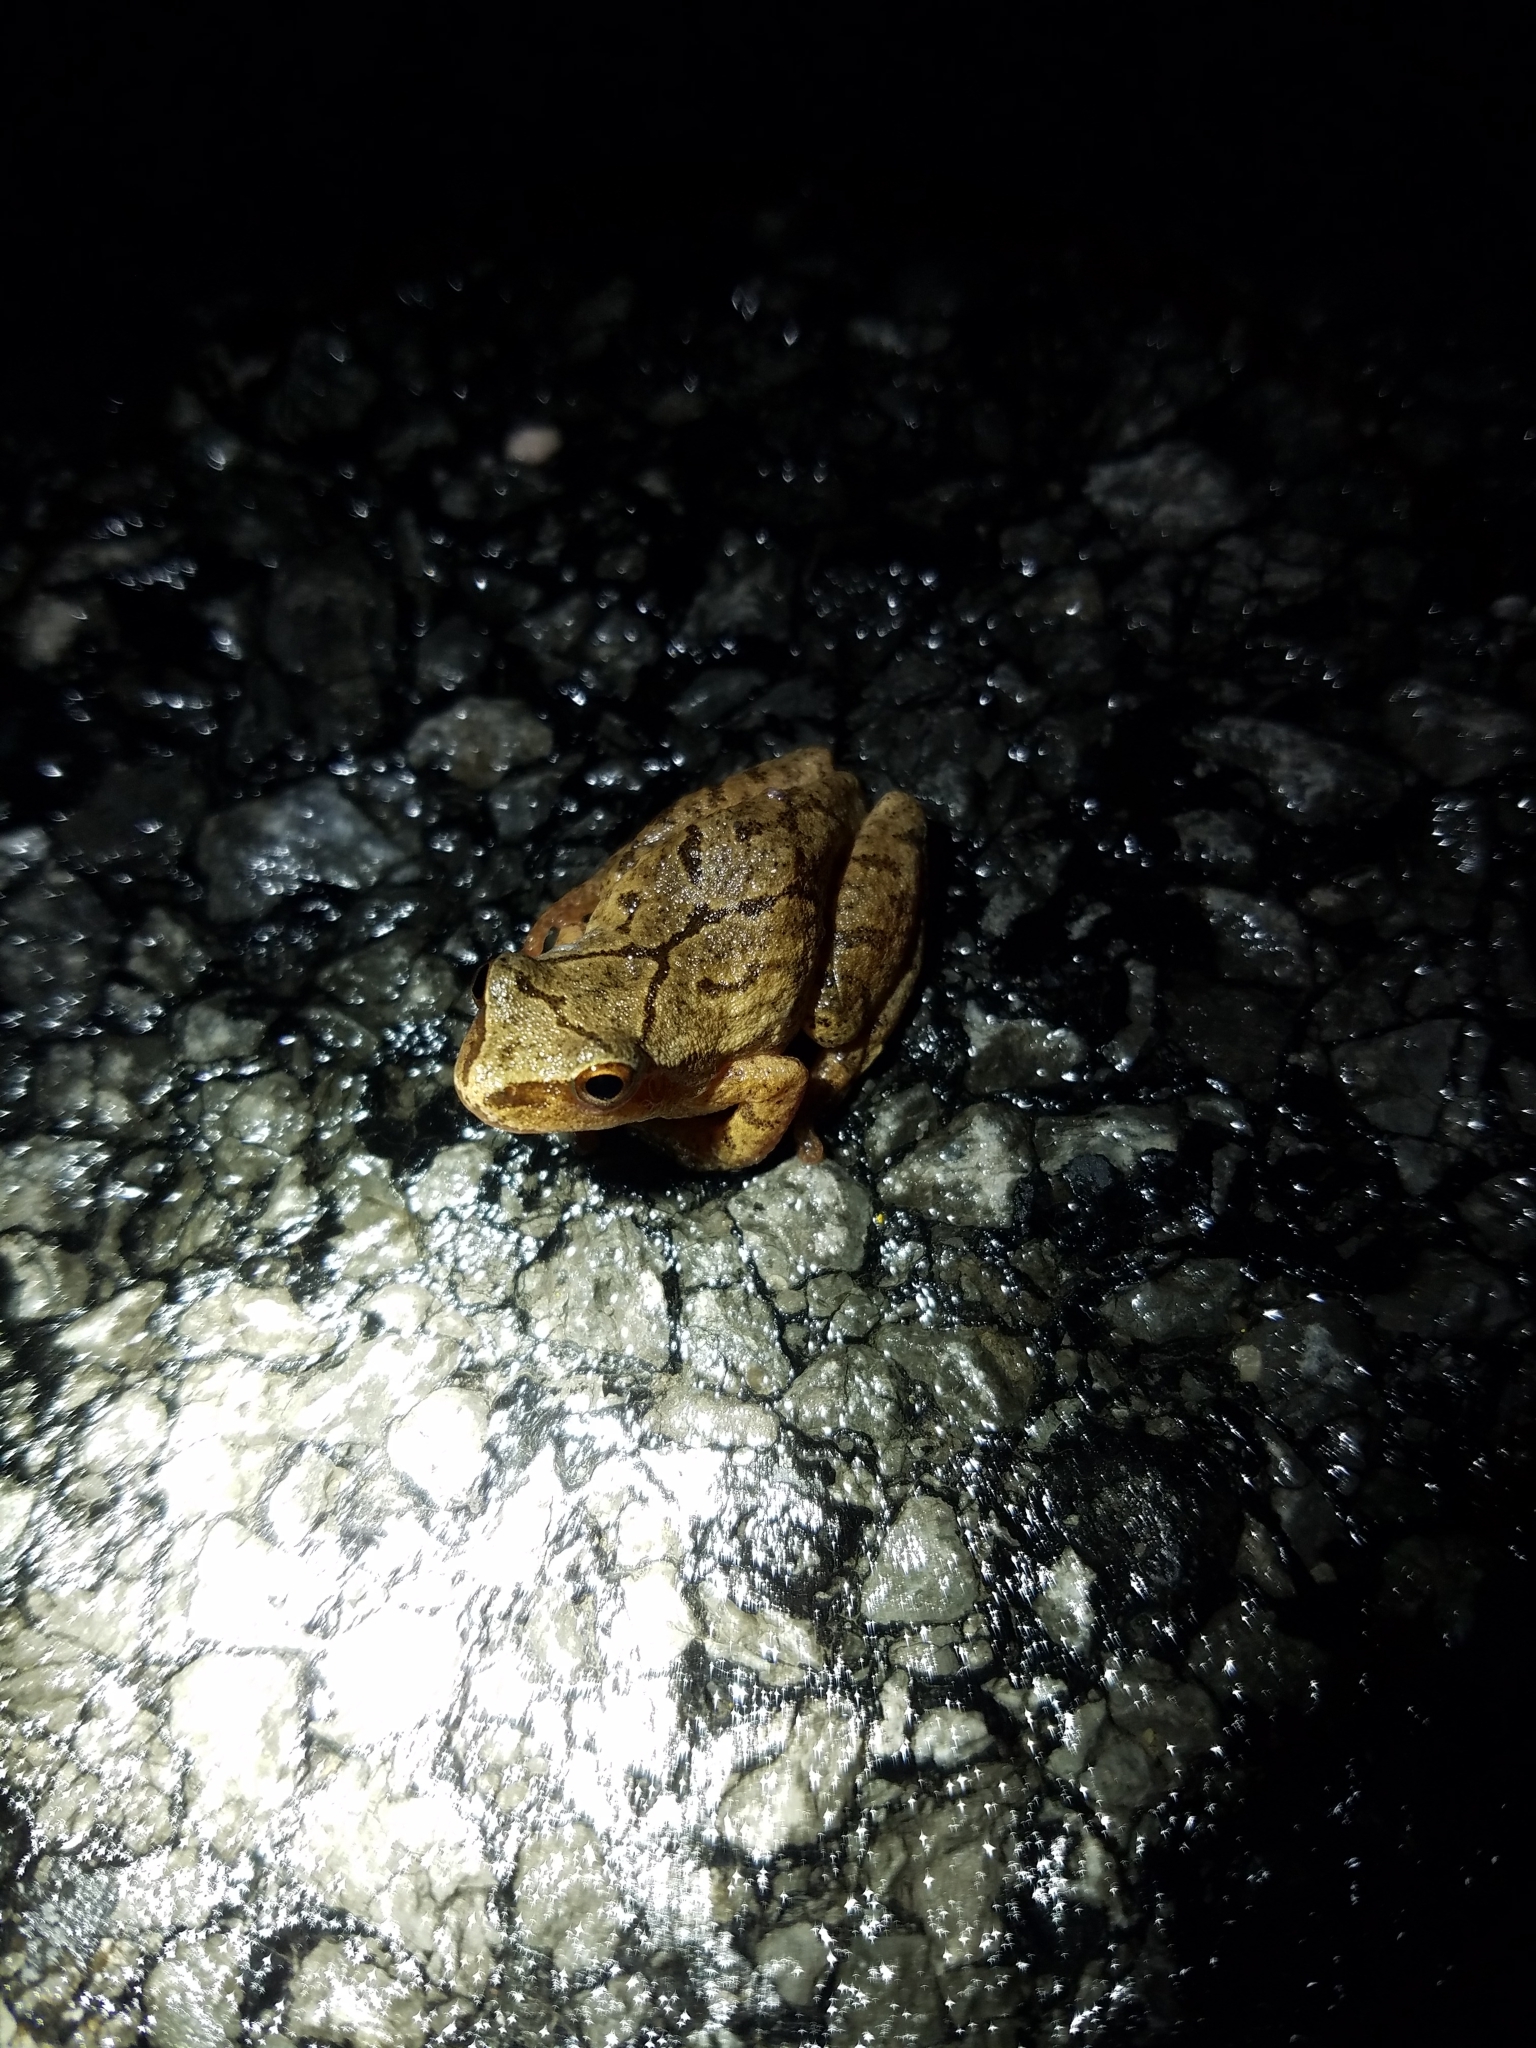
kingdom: Animalia
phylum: Chordata
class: Amphibia
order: Anura
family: Hylidae
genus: Pseudacris
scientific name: Pseudacris crucifer
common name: Spring peeper
